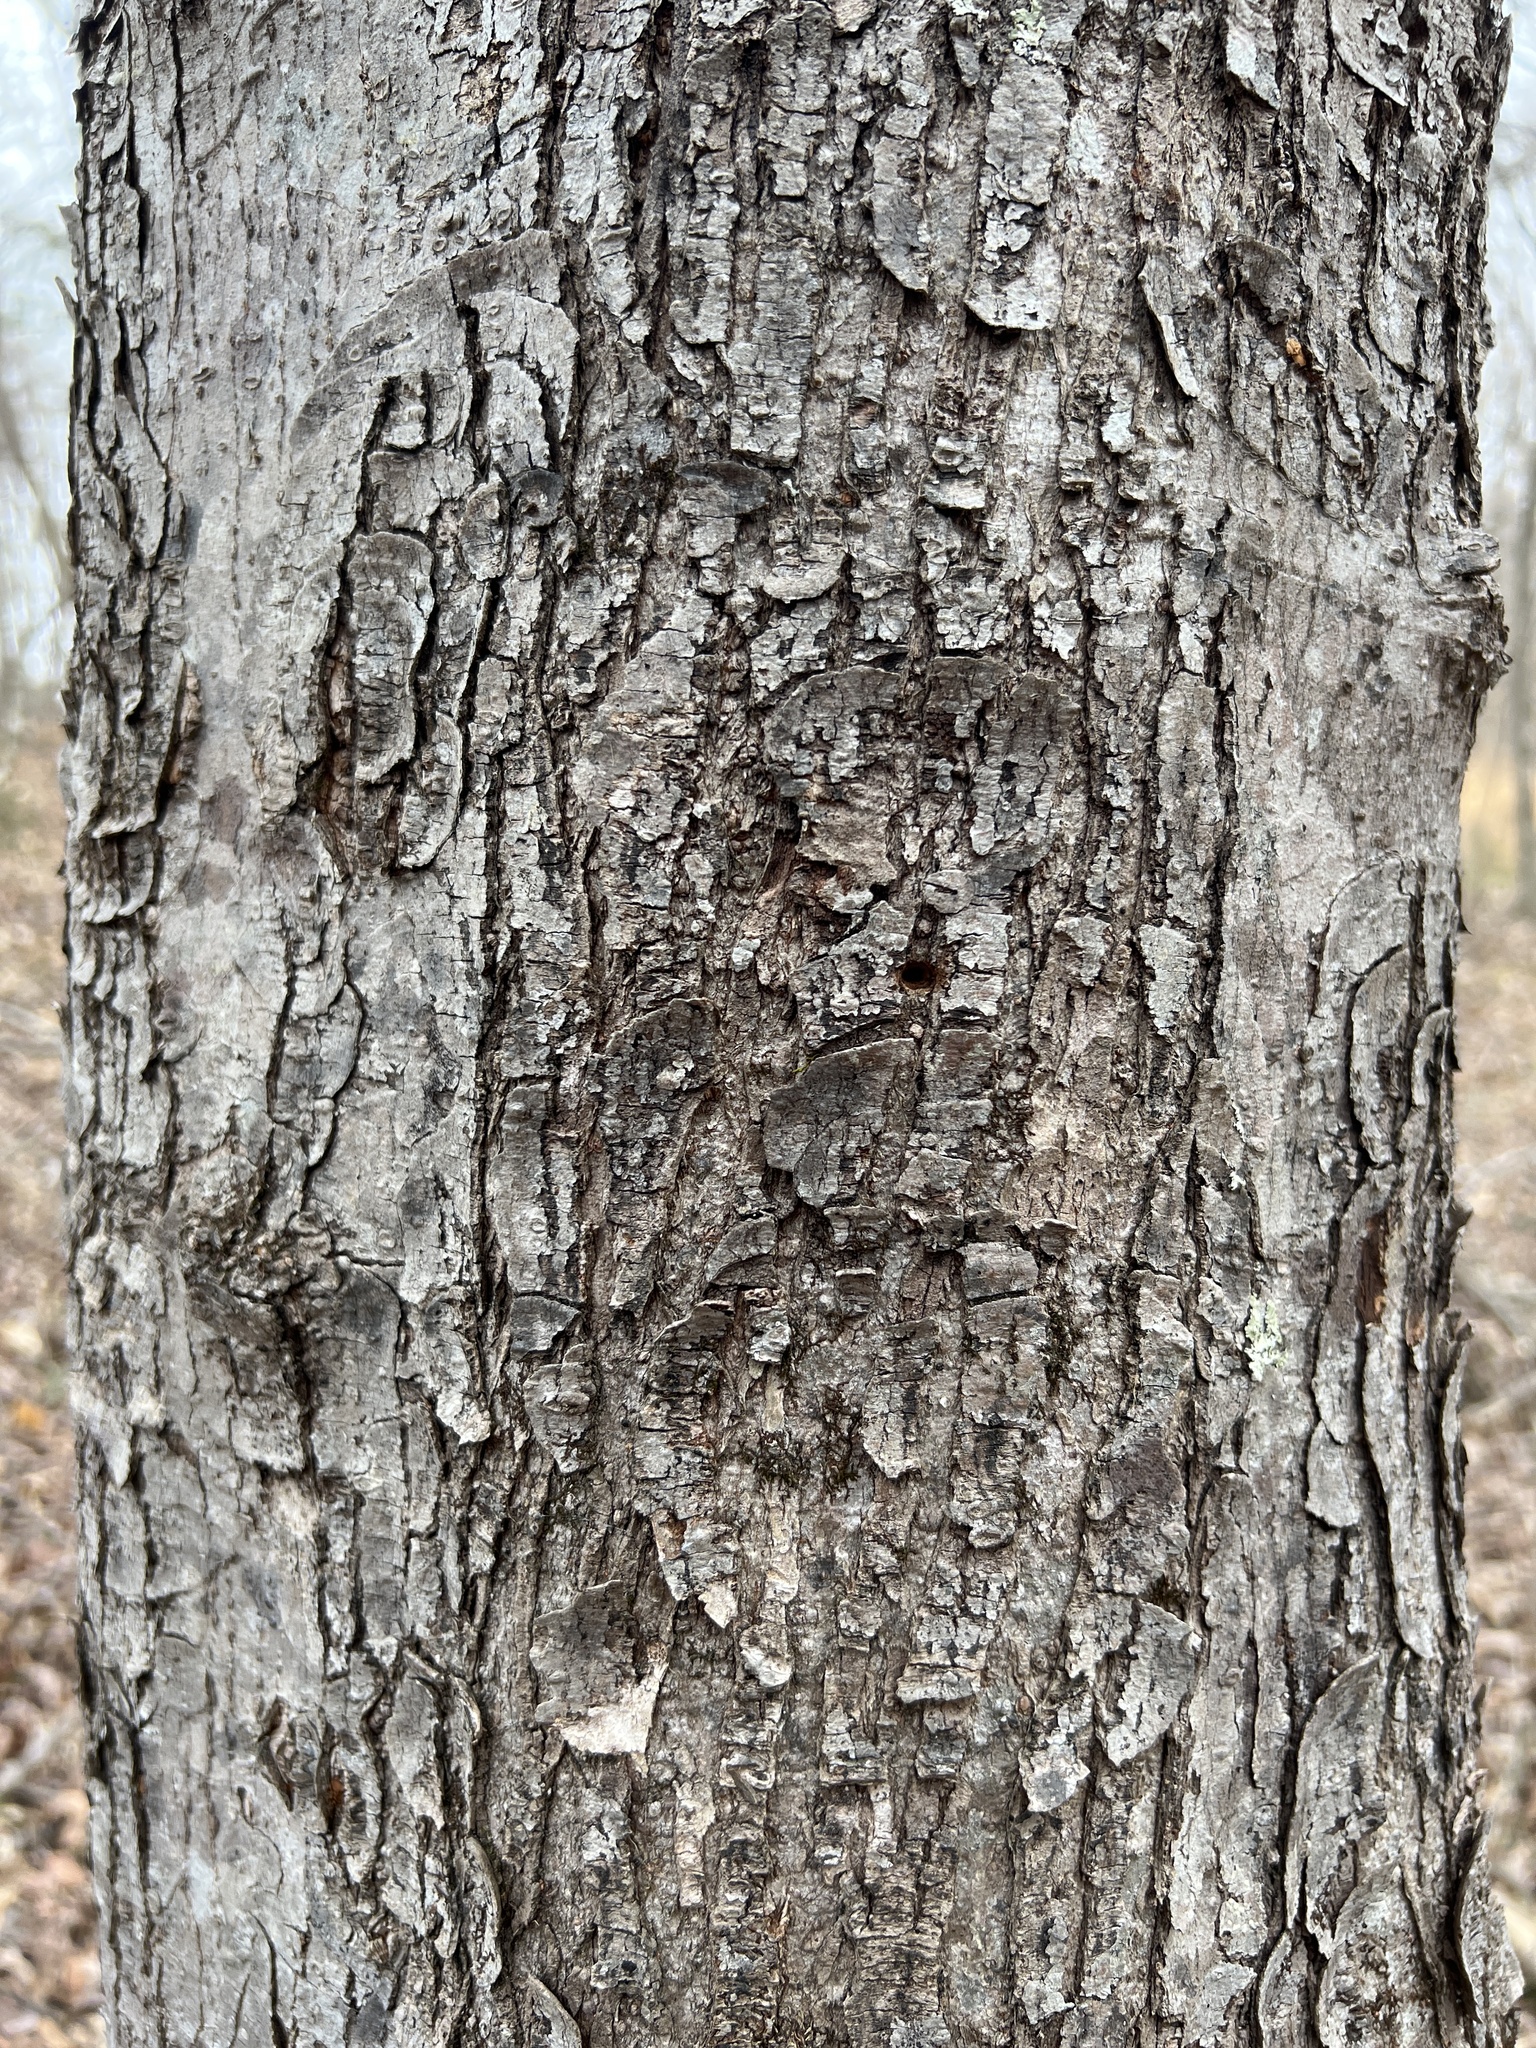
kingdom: Plantae
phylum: Tracheophyta
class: Magnoliopsida
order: Sapindales
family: Sapindaceae
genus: Acer
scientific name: Acer rubrum
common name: Red maple
